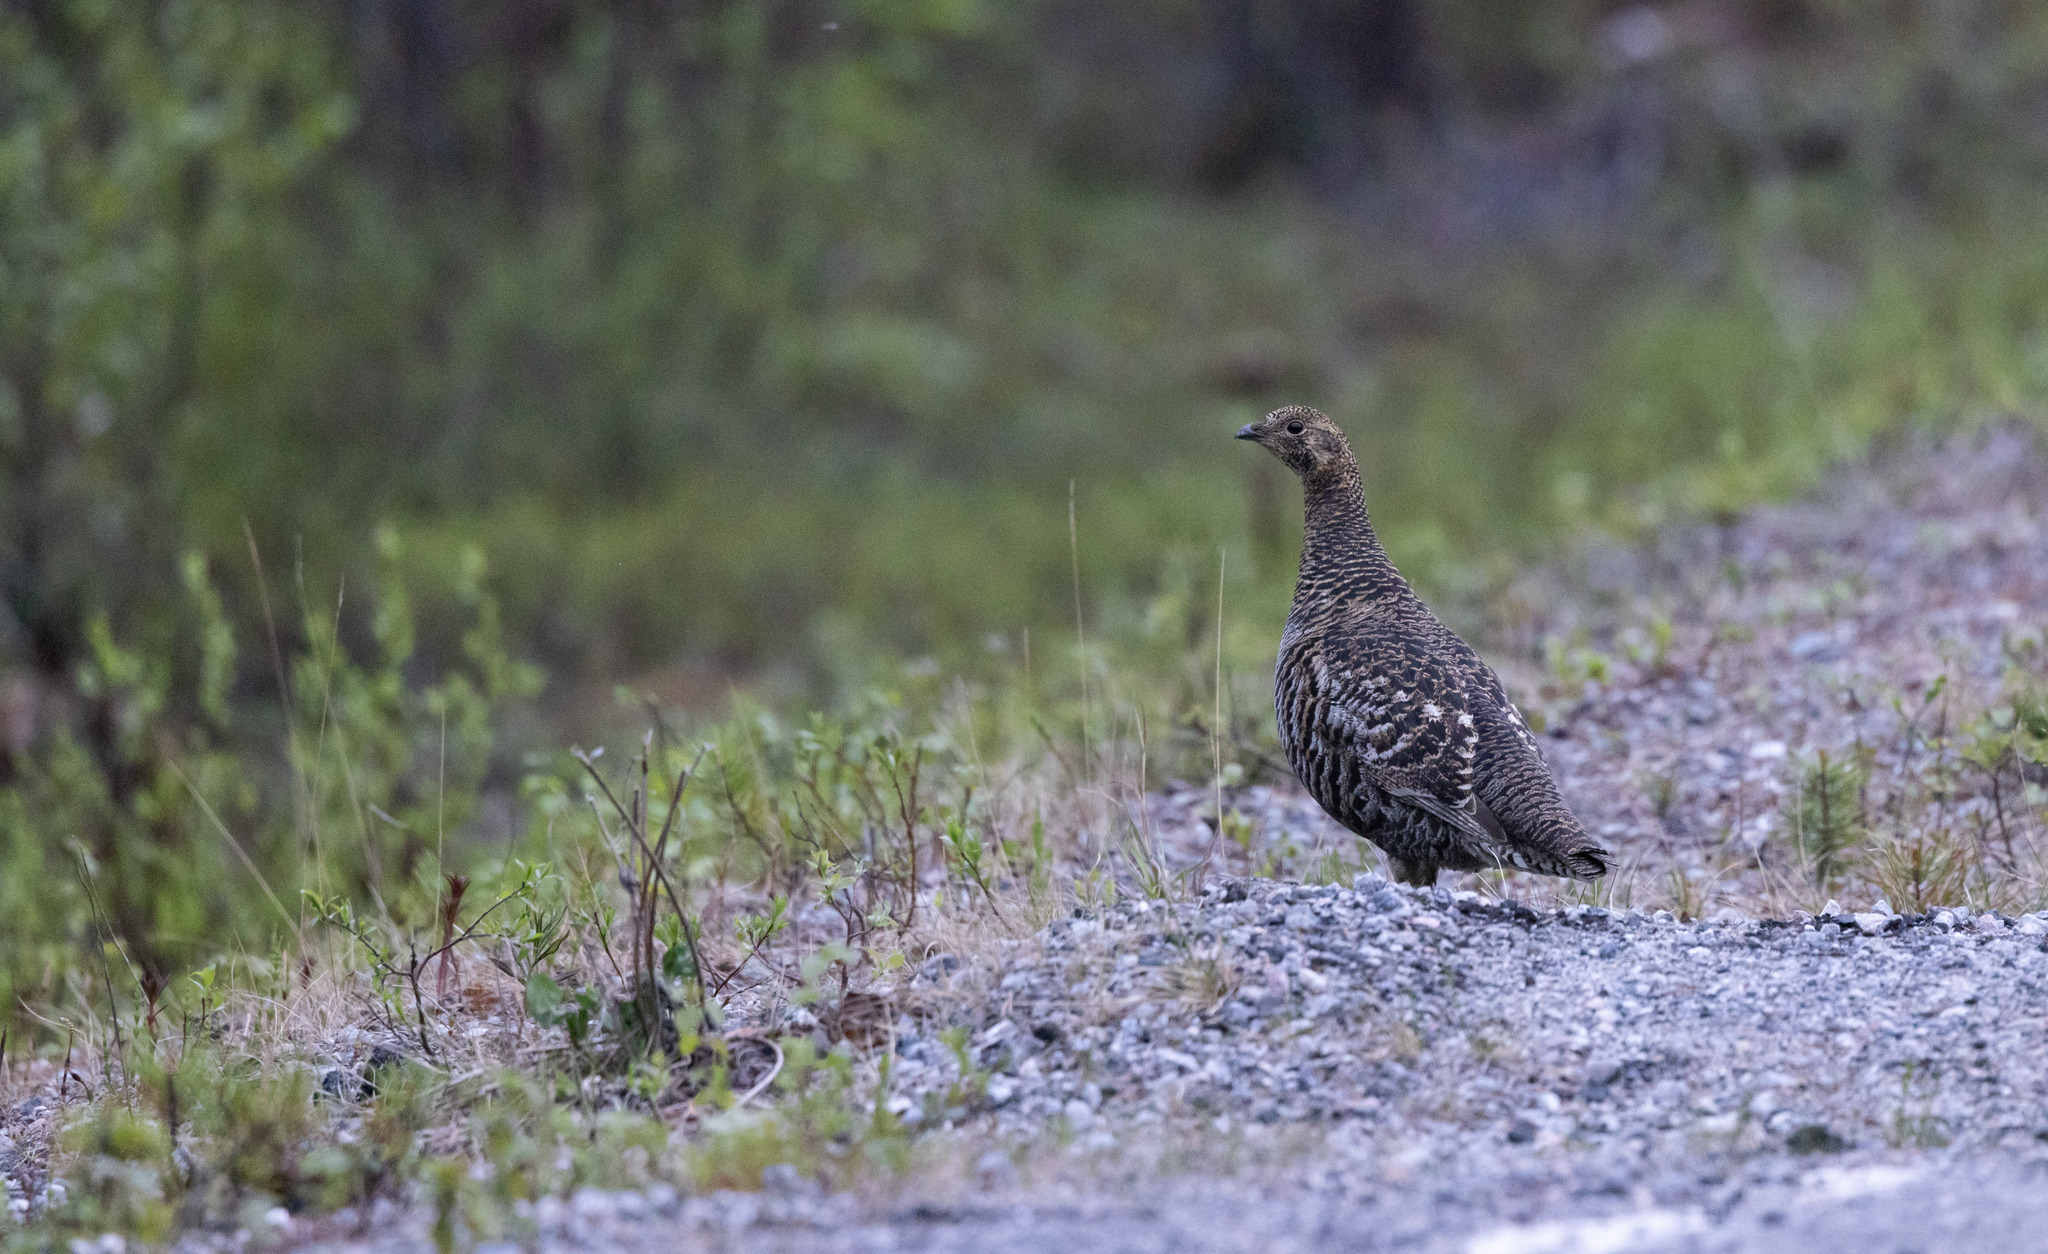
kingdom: Animalia
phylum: Chordata
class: Aves
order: Galliformes
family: Phasianidae
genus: Lyrurus
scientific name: Lyrurus tetrix
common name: Black grouse
